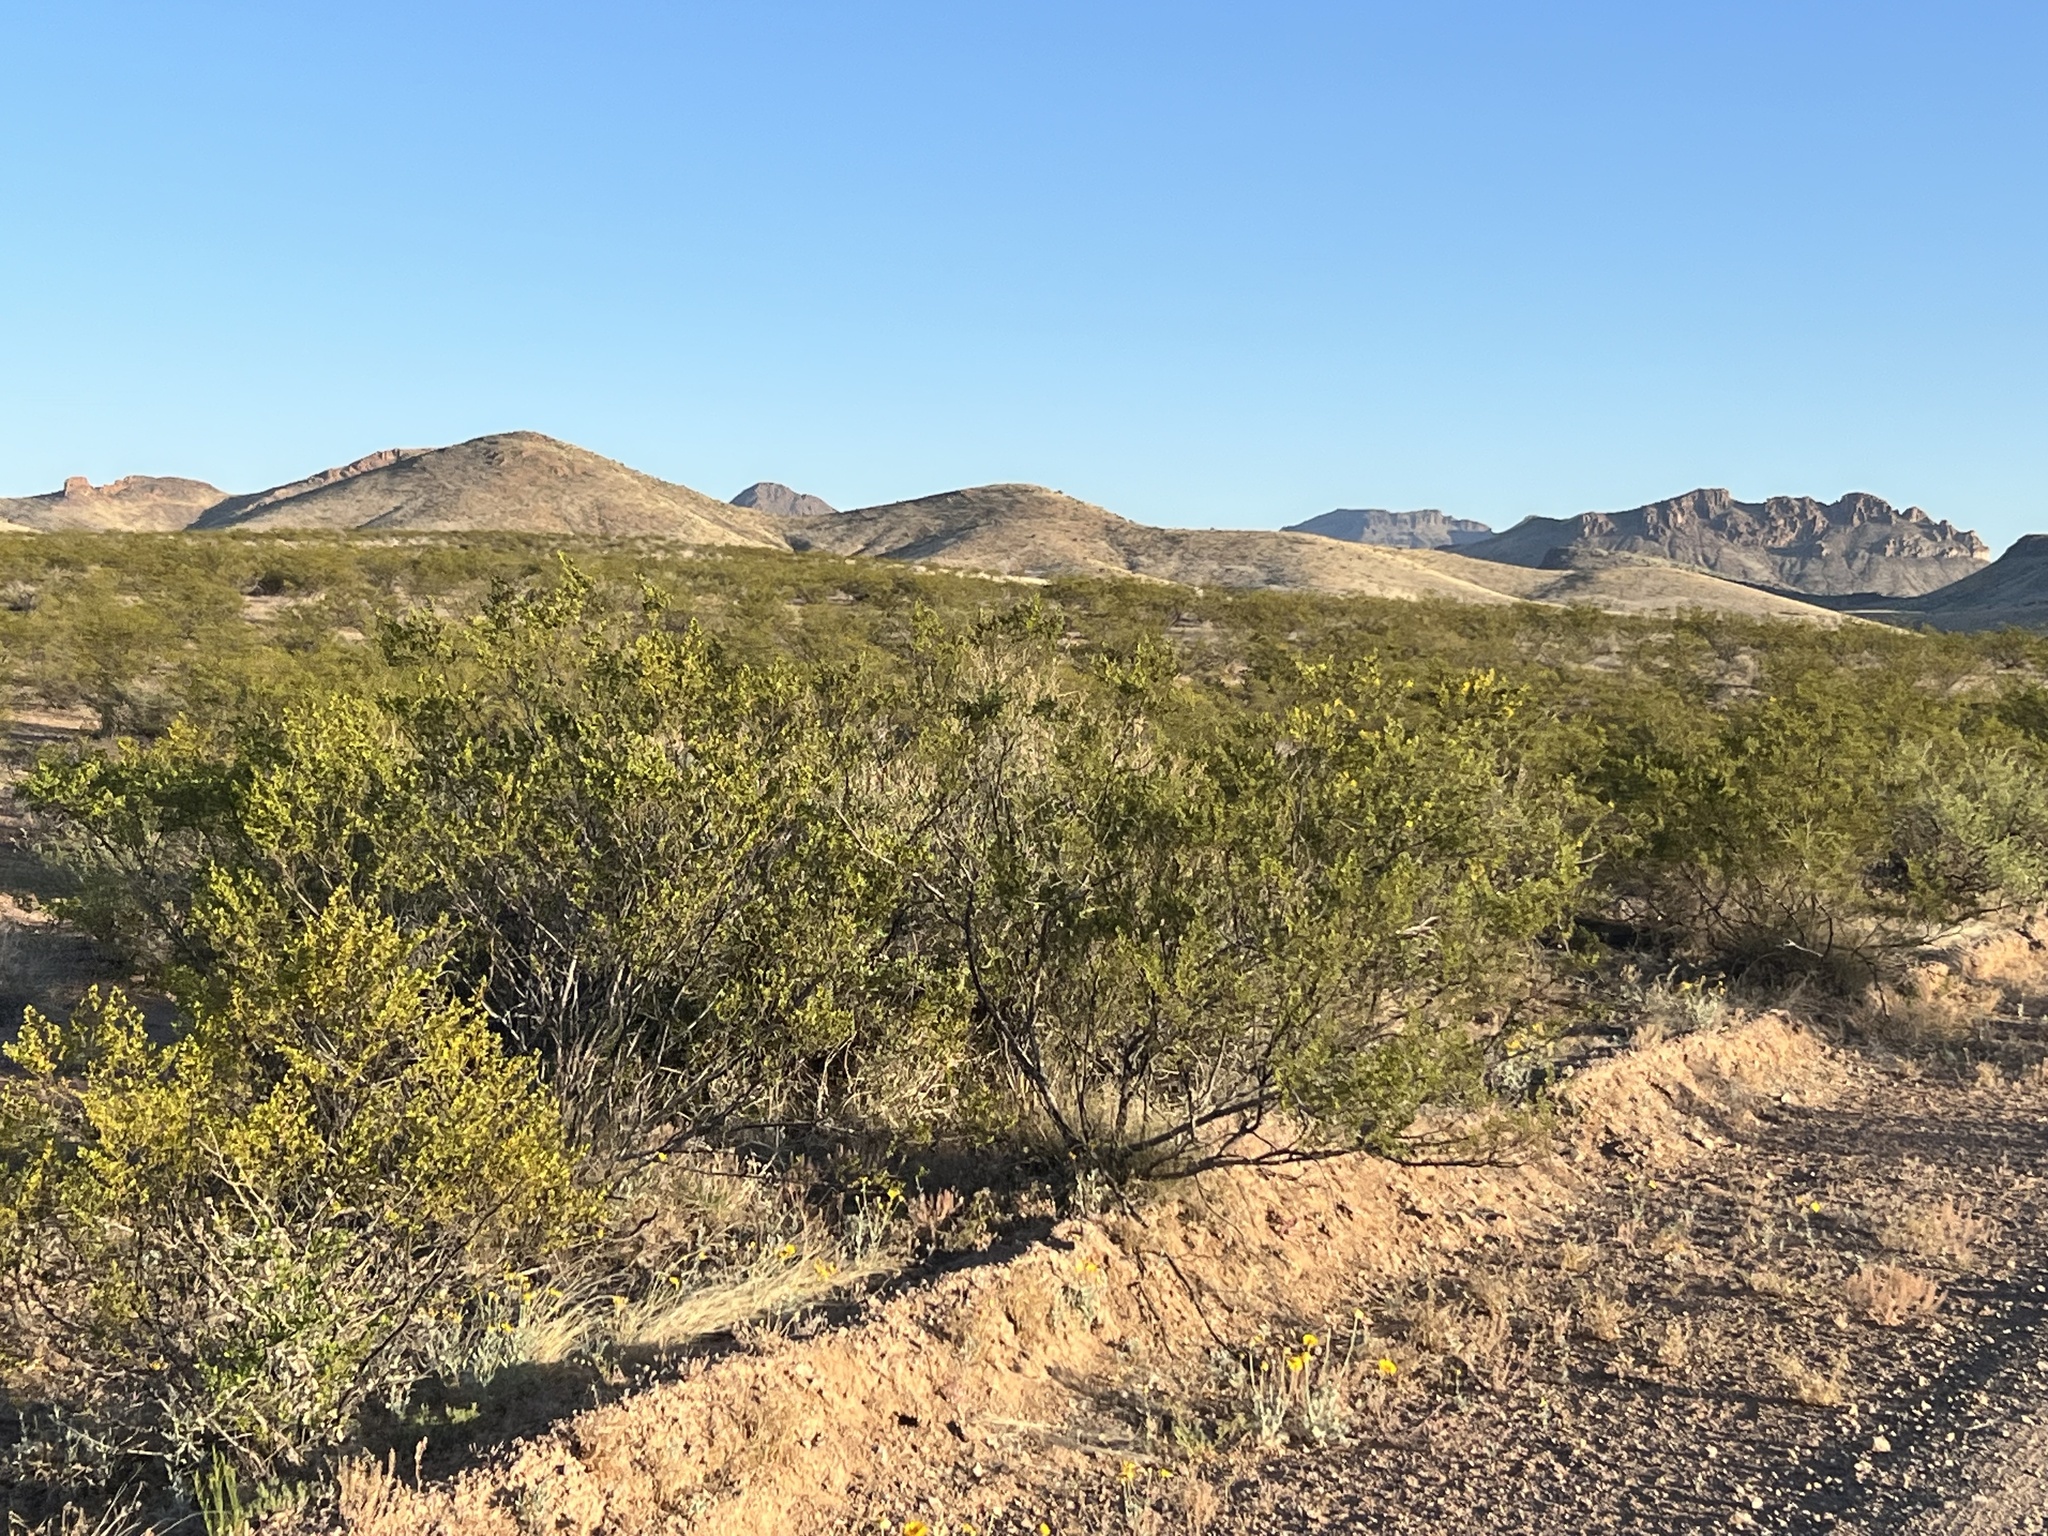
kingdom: Plantae
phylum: Tracheophyta
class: Magnoliopsida
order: Zygophyllales
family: Zygophyllaceae
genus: Larrea
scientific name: Larrea tridentata
